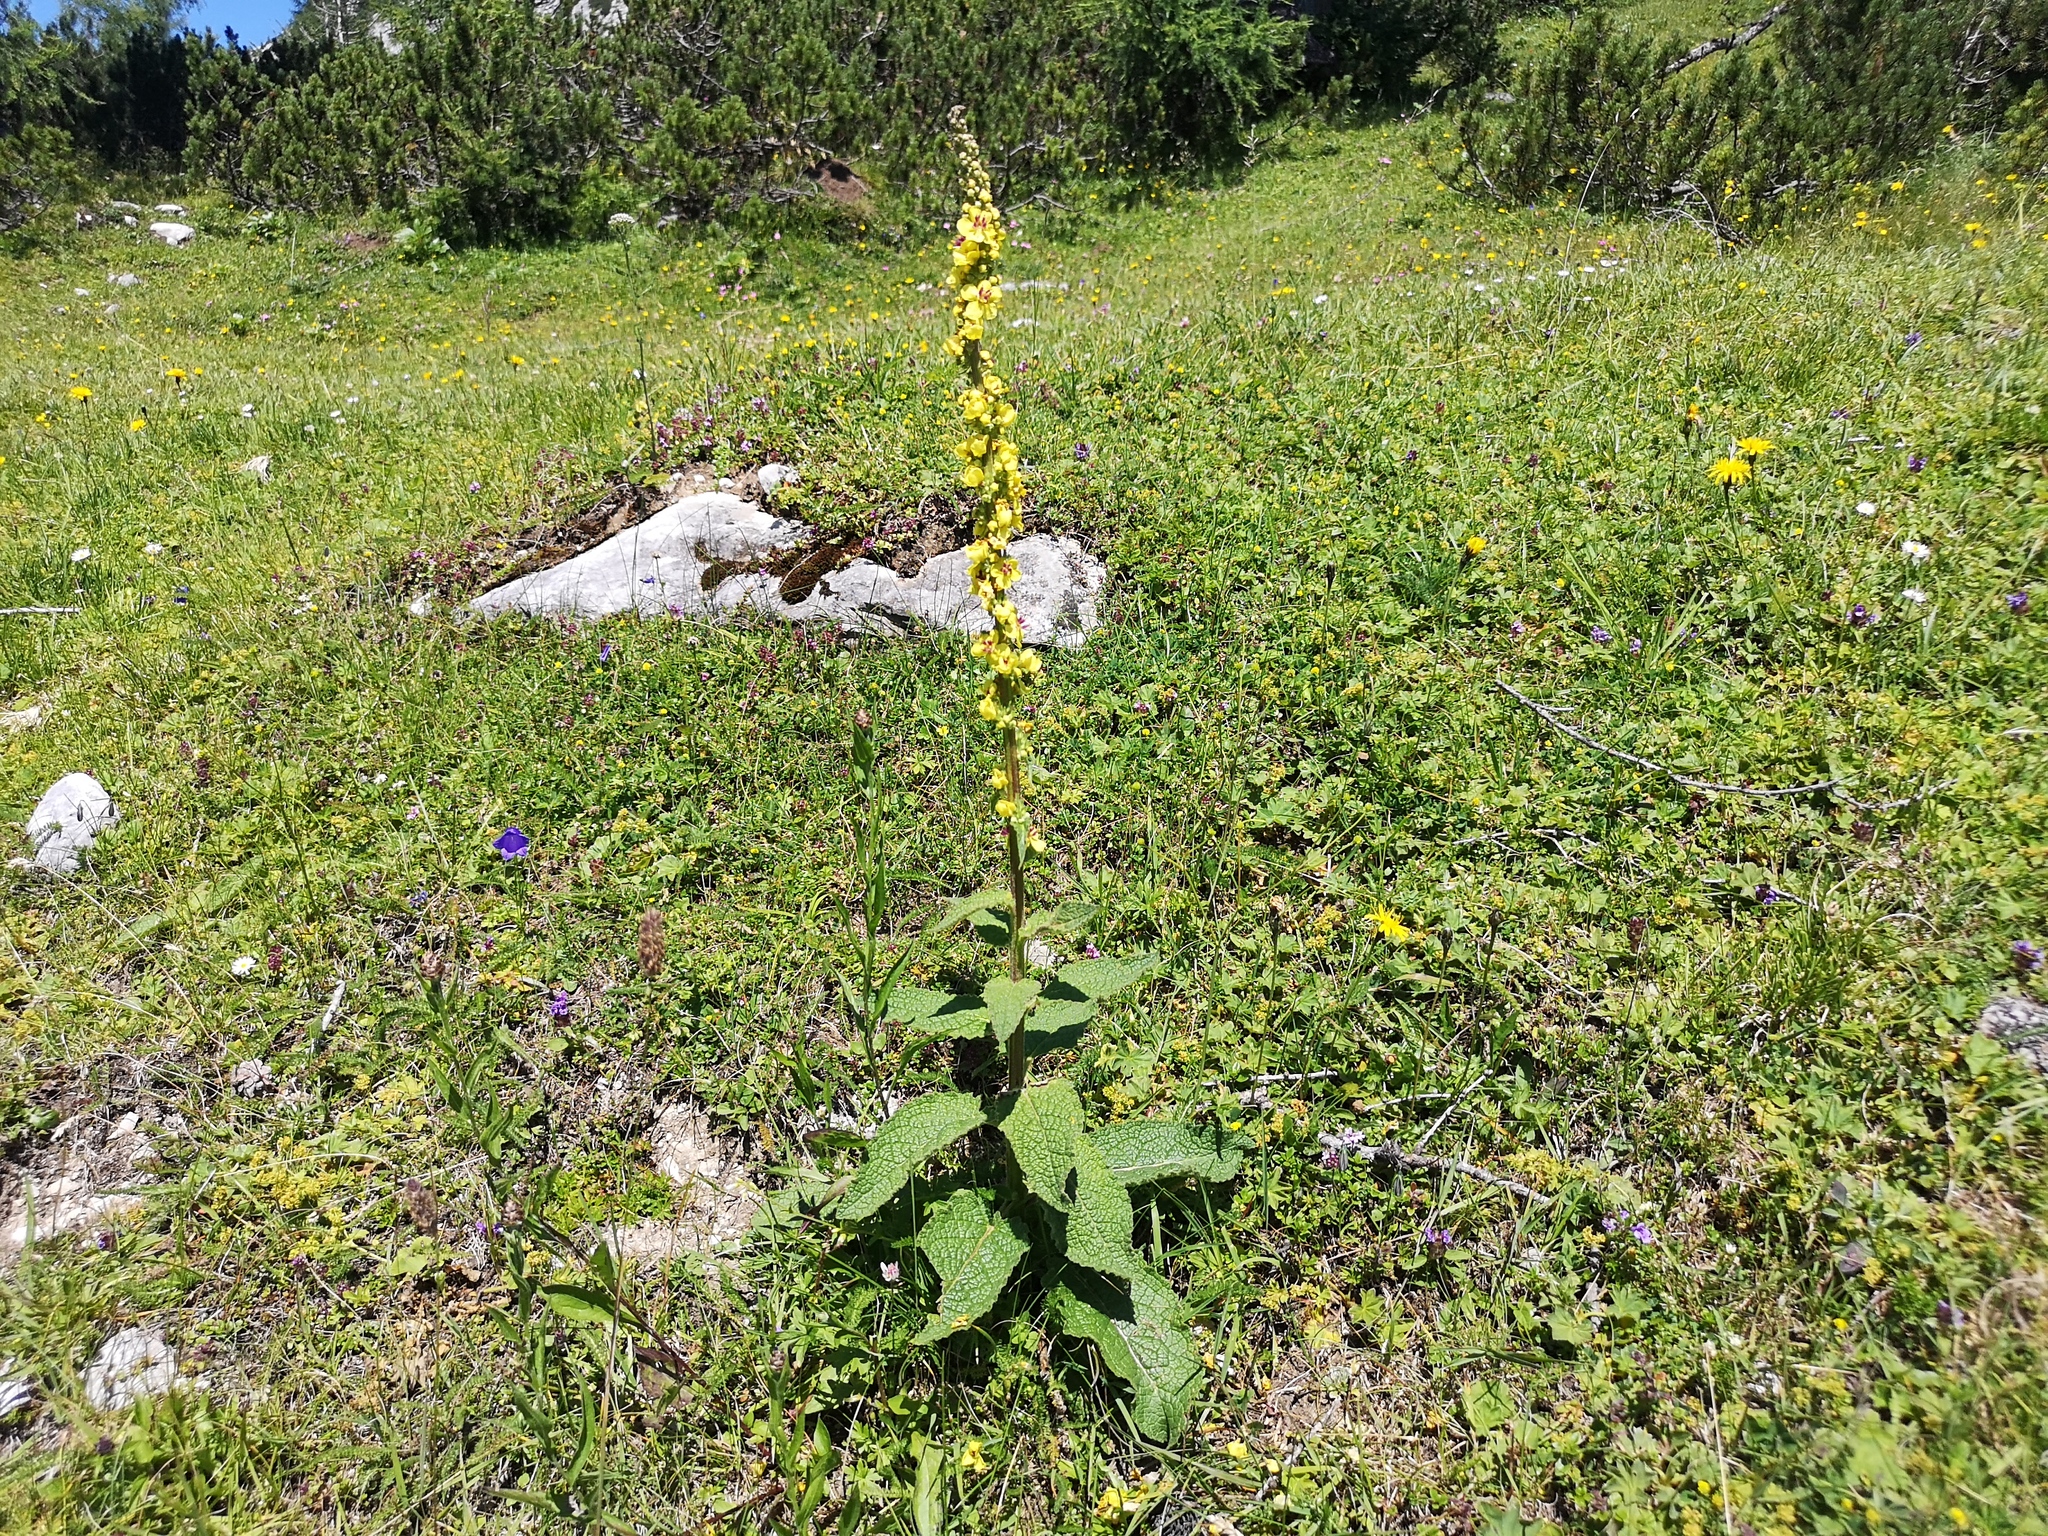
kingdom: Plantae
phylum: Tracheophyta
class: Magnoliopsida
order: Lamiales
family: Scrophulariaceae
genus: Verbascum
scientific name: Verbascum nigrum
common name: Dark mullein
